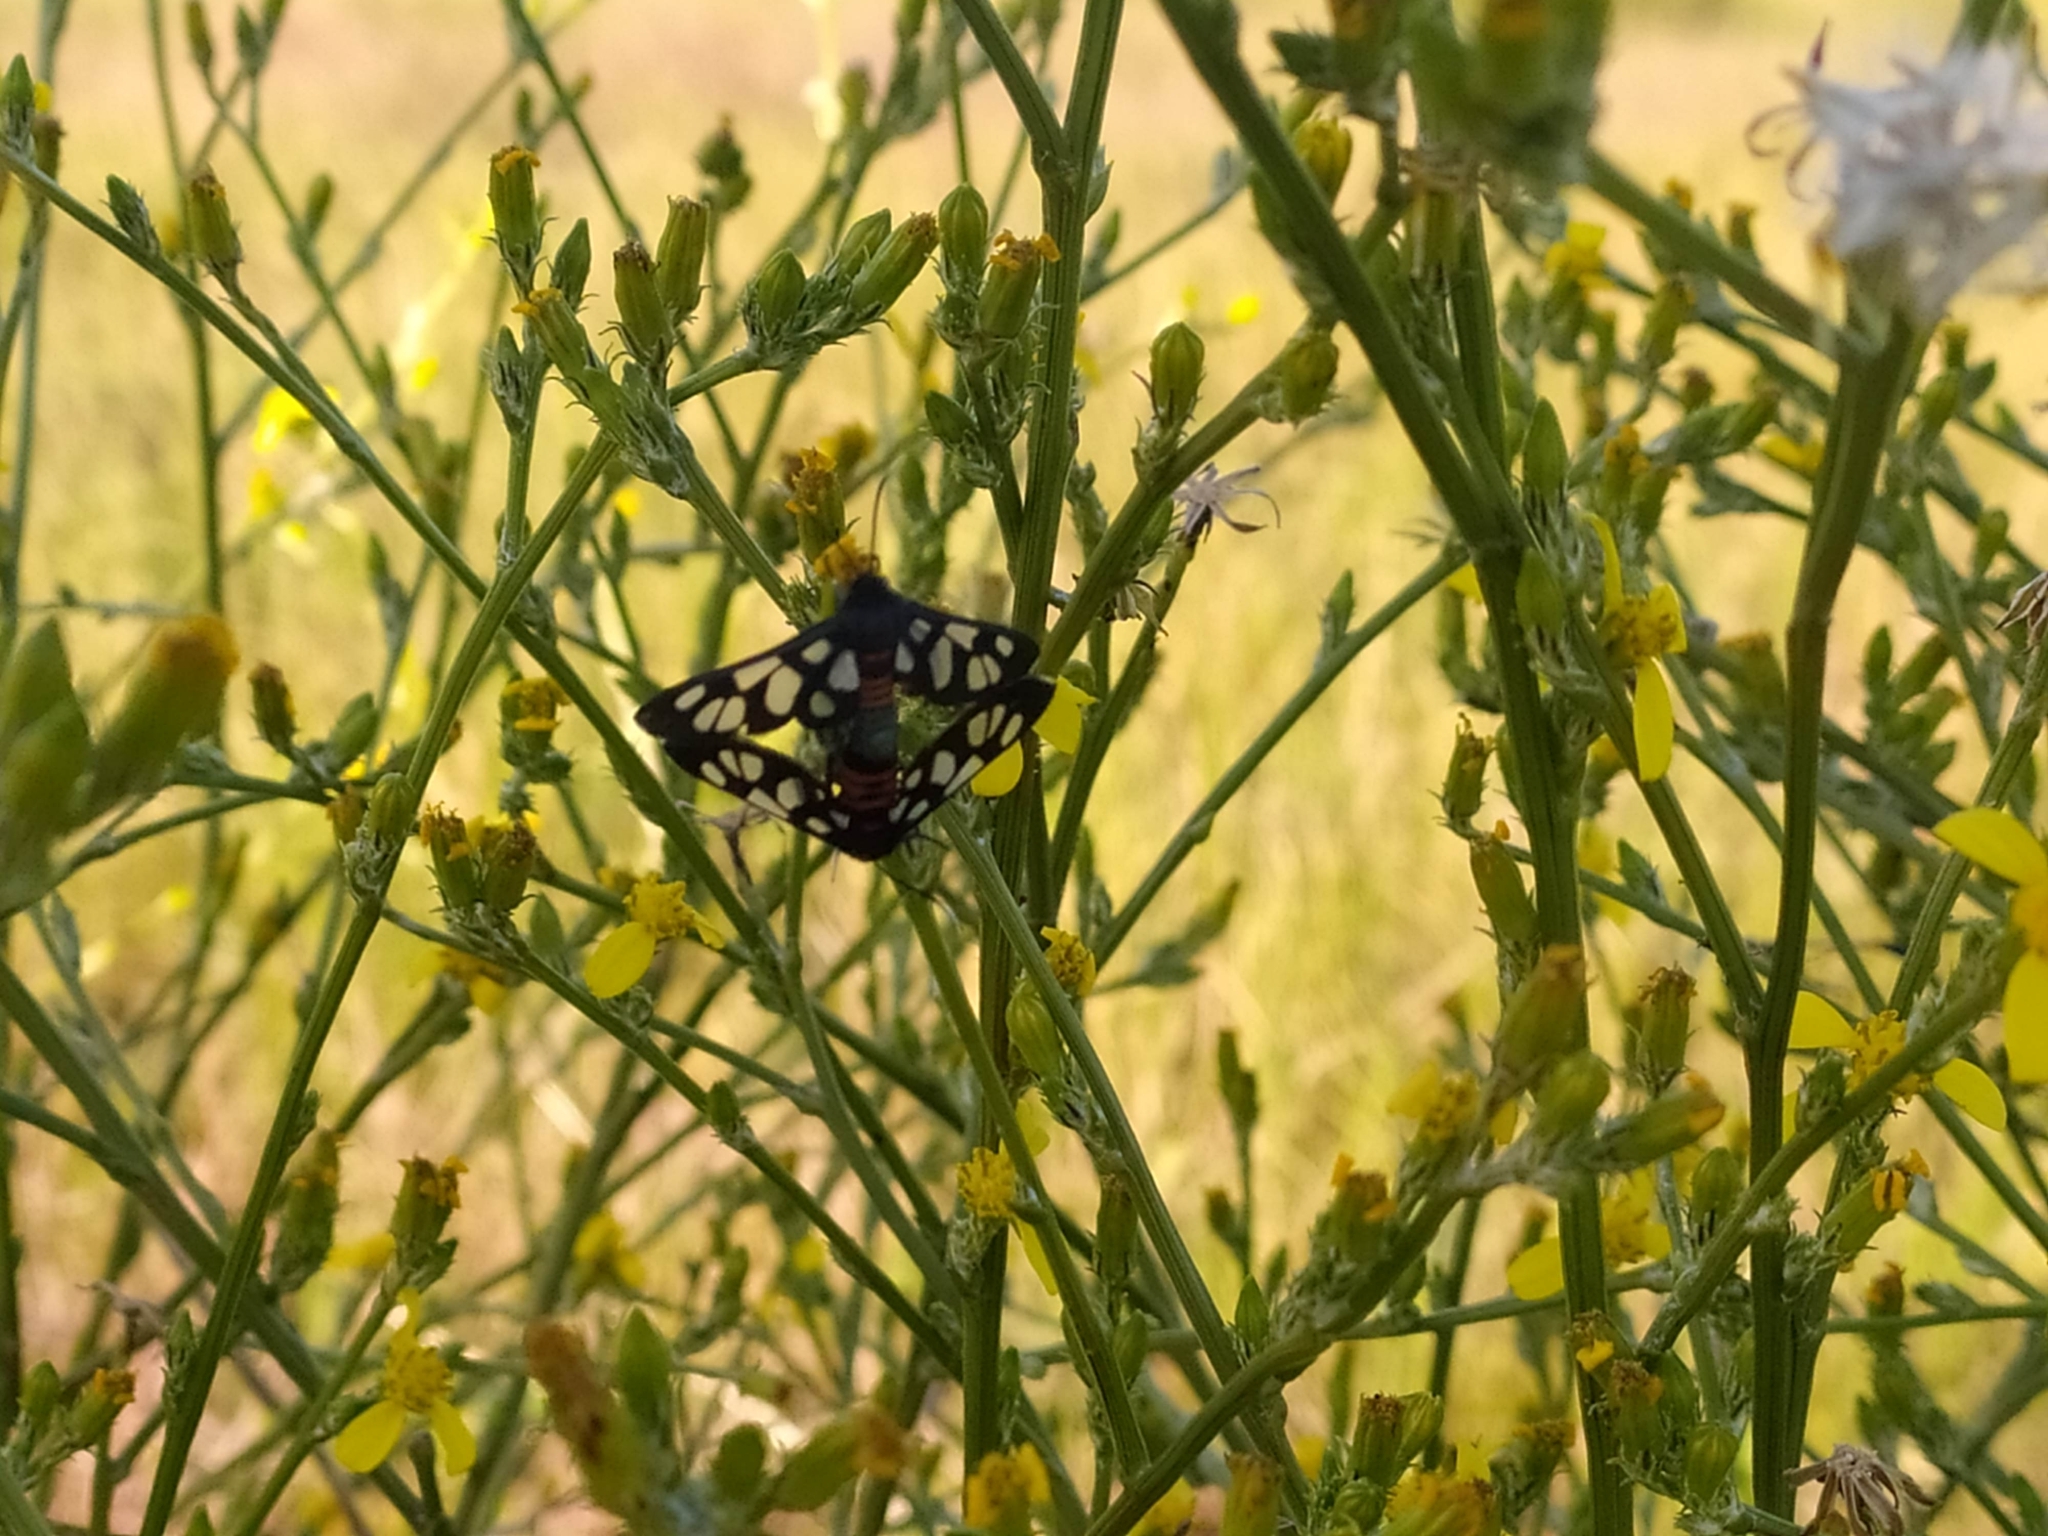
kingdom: Animalia
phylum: Arthropoda
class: Insecta
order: Lepidoptera
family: Erebidae
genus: Amata
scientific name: Amata cerbera
